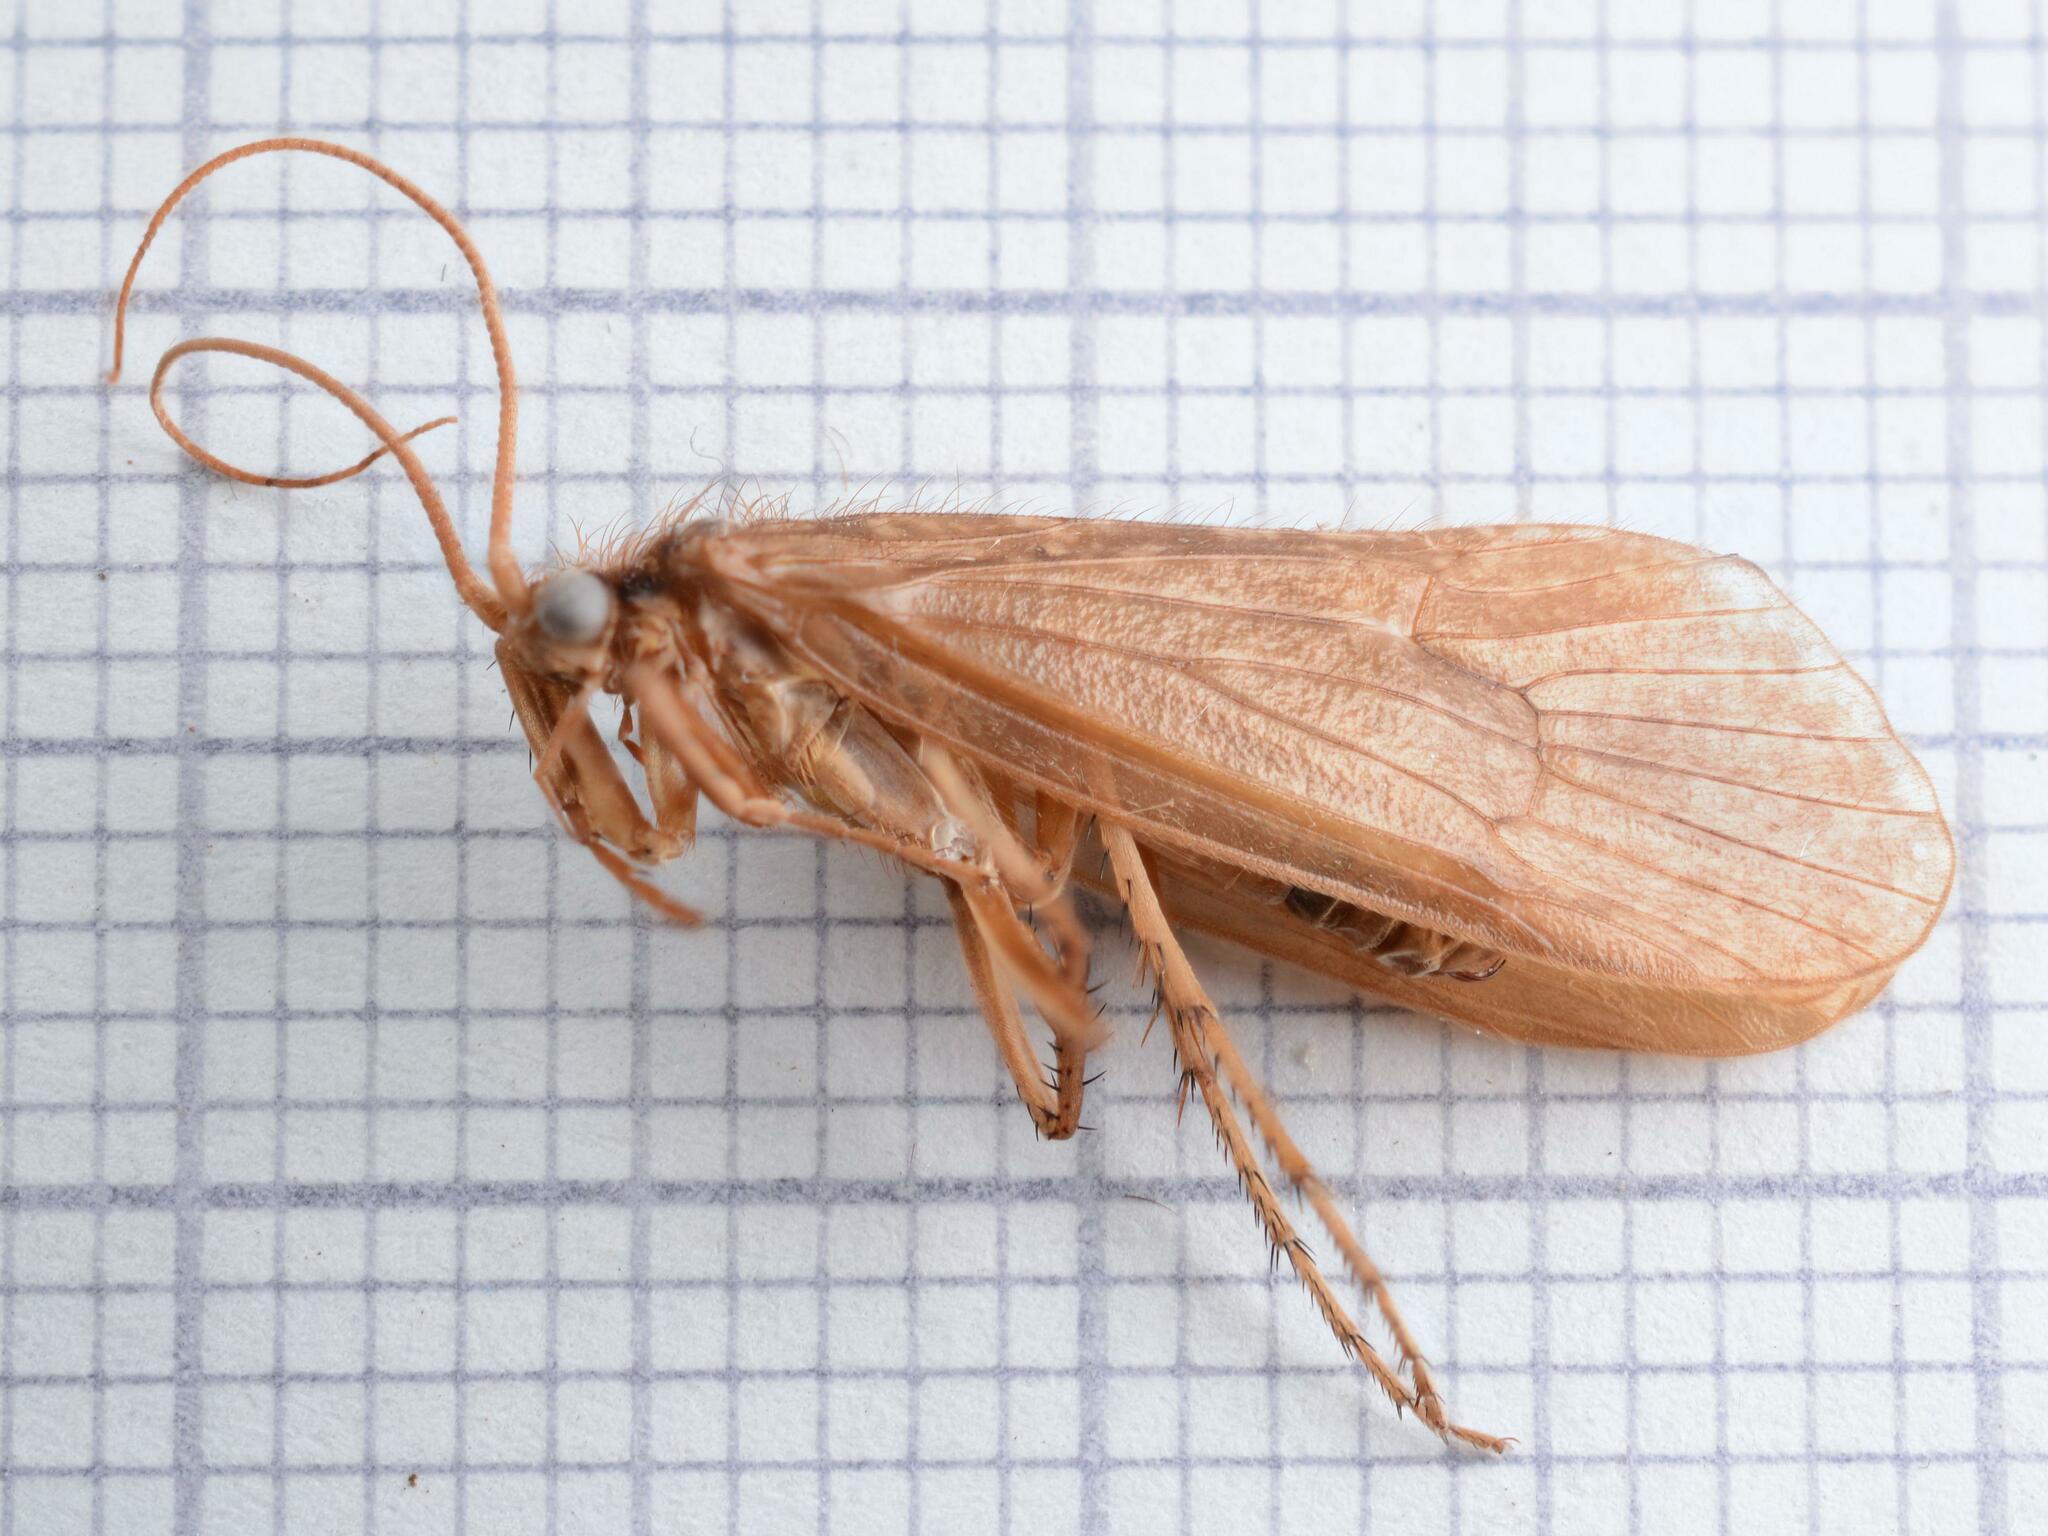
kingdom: Animalia
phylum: Arthropoda
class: Insecta
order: Trichoptera
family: Limnephilidae
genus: Stenophylax
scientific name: Stenophylax lateralis
